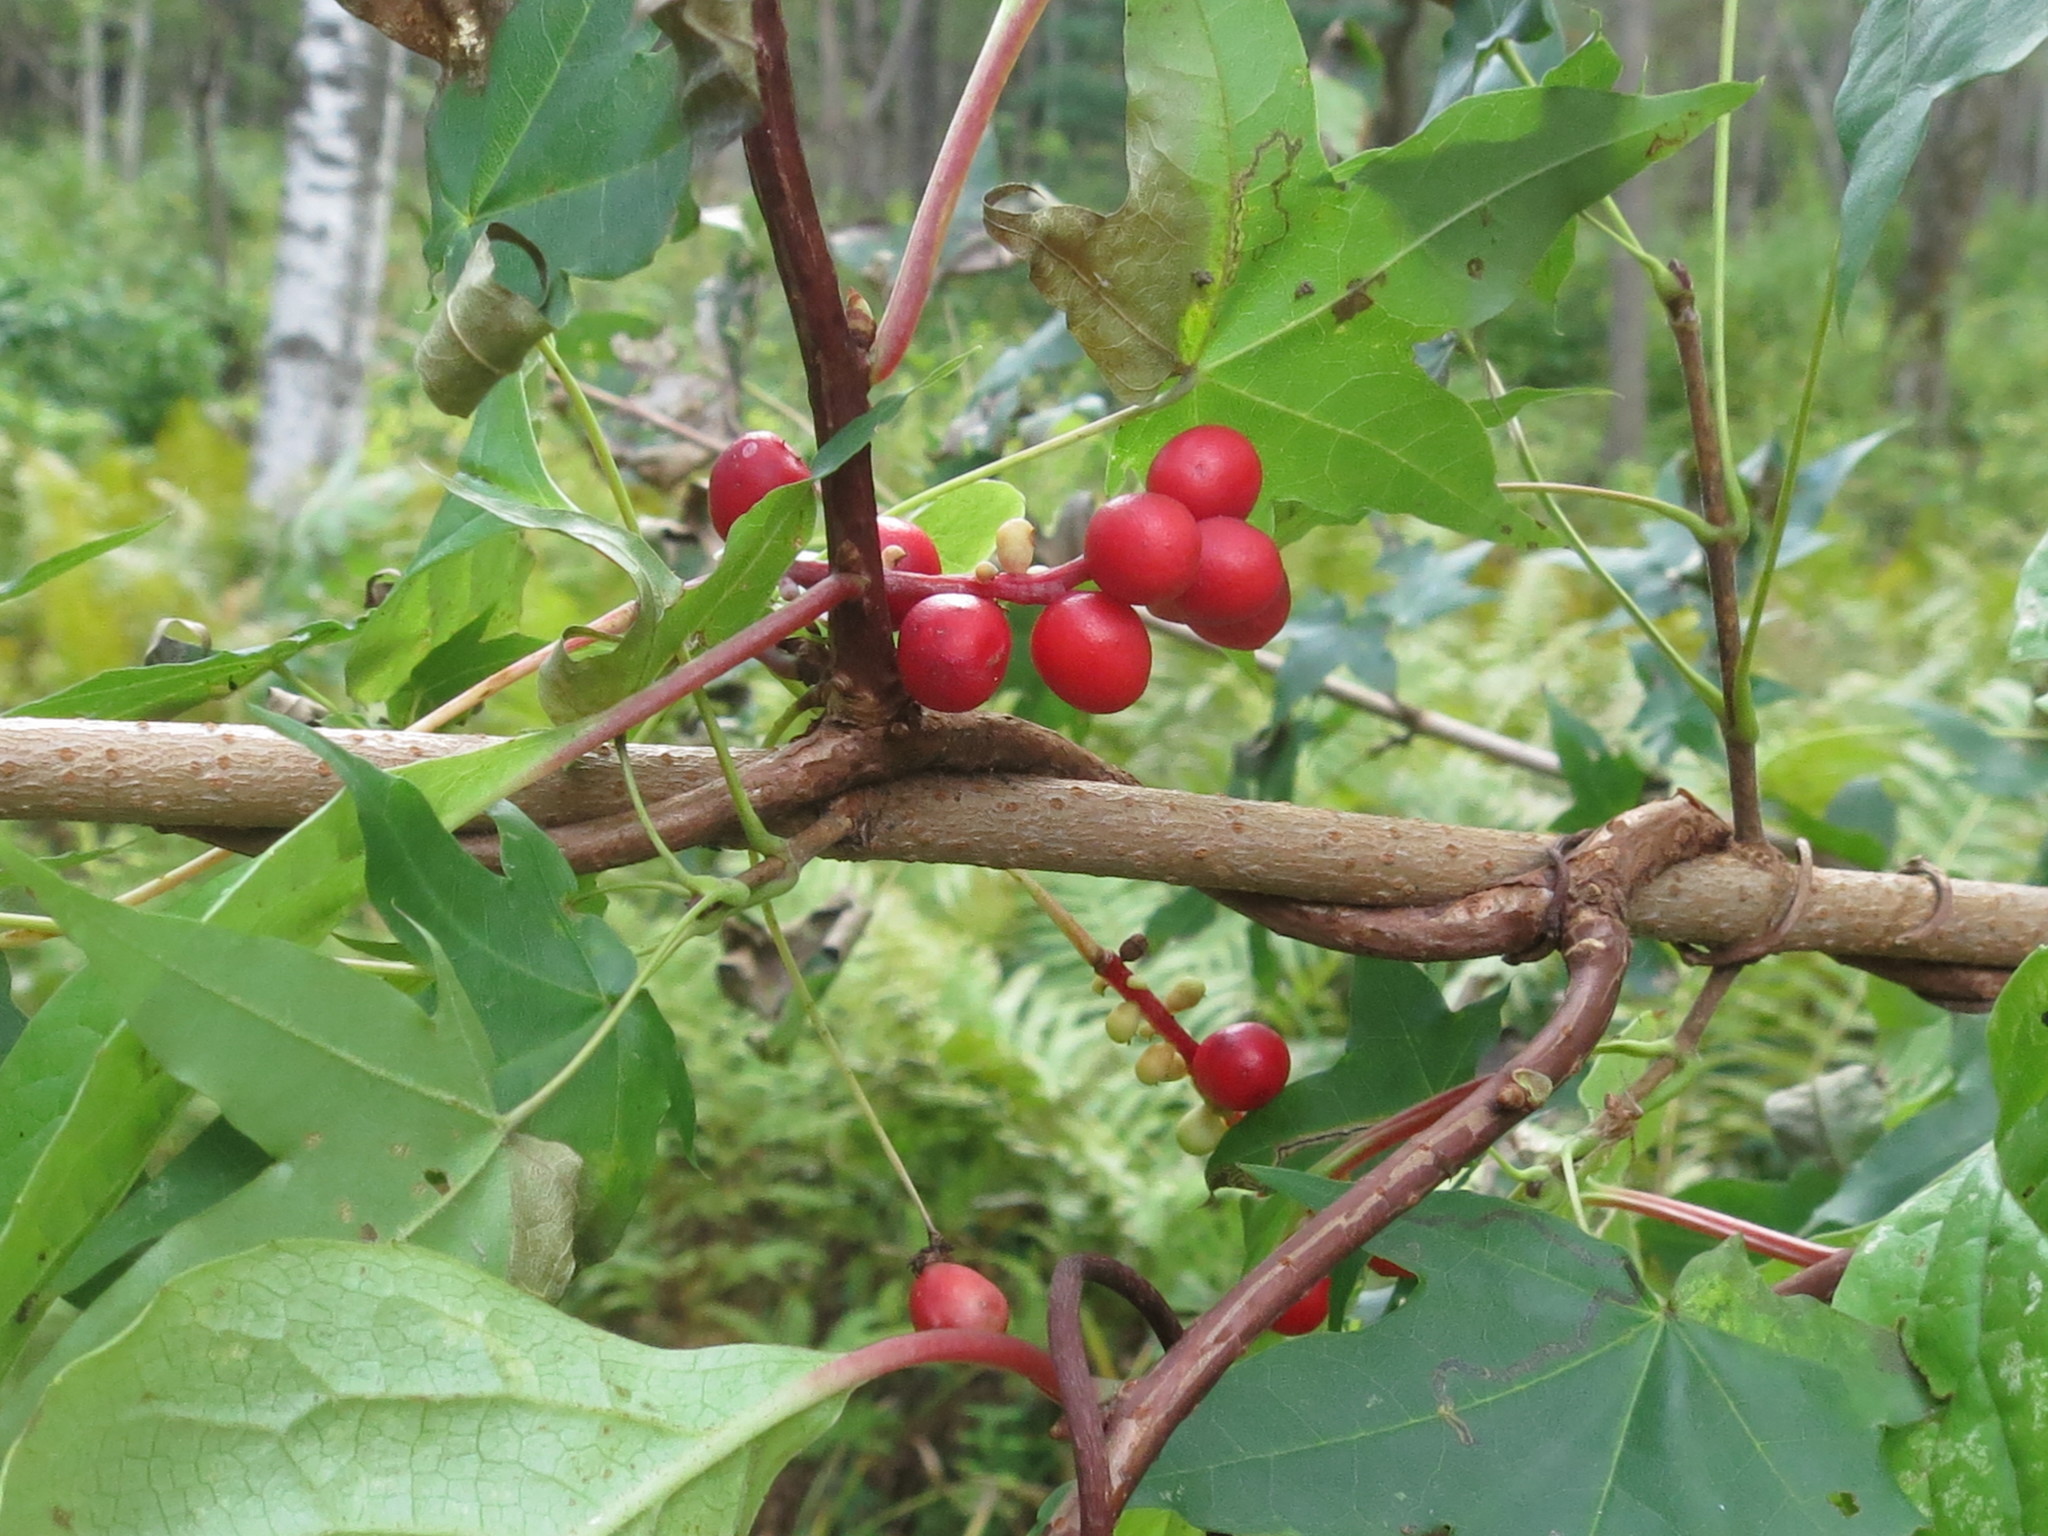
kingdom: Plantae
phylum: Tracheophyta
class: Magnoliopsida
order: Austrobaileyales
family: Schisandraceae
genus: Schisandra
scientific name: Schisandra chinensis
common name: Magnolia-vine
